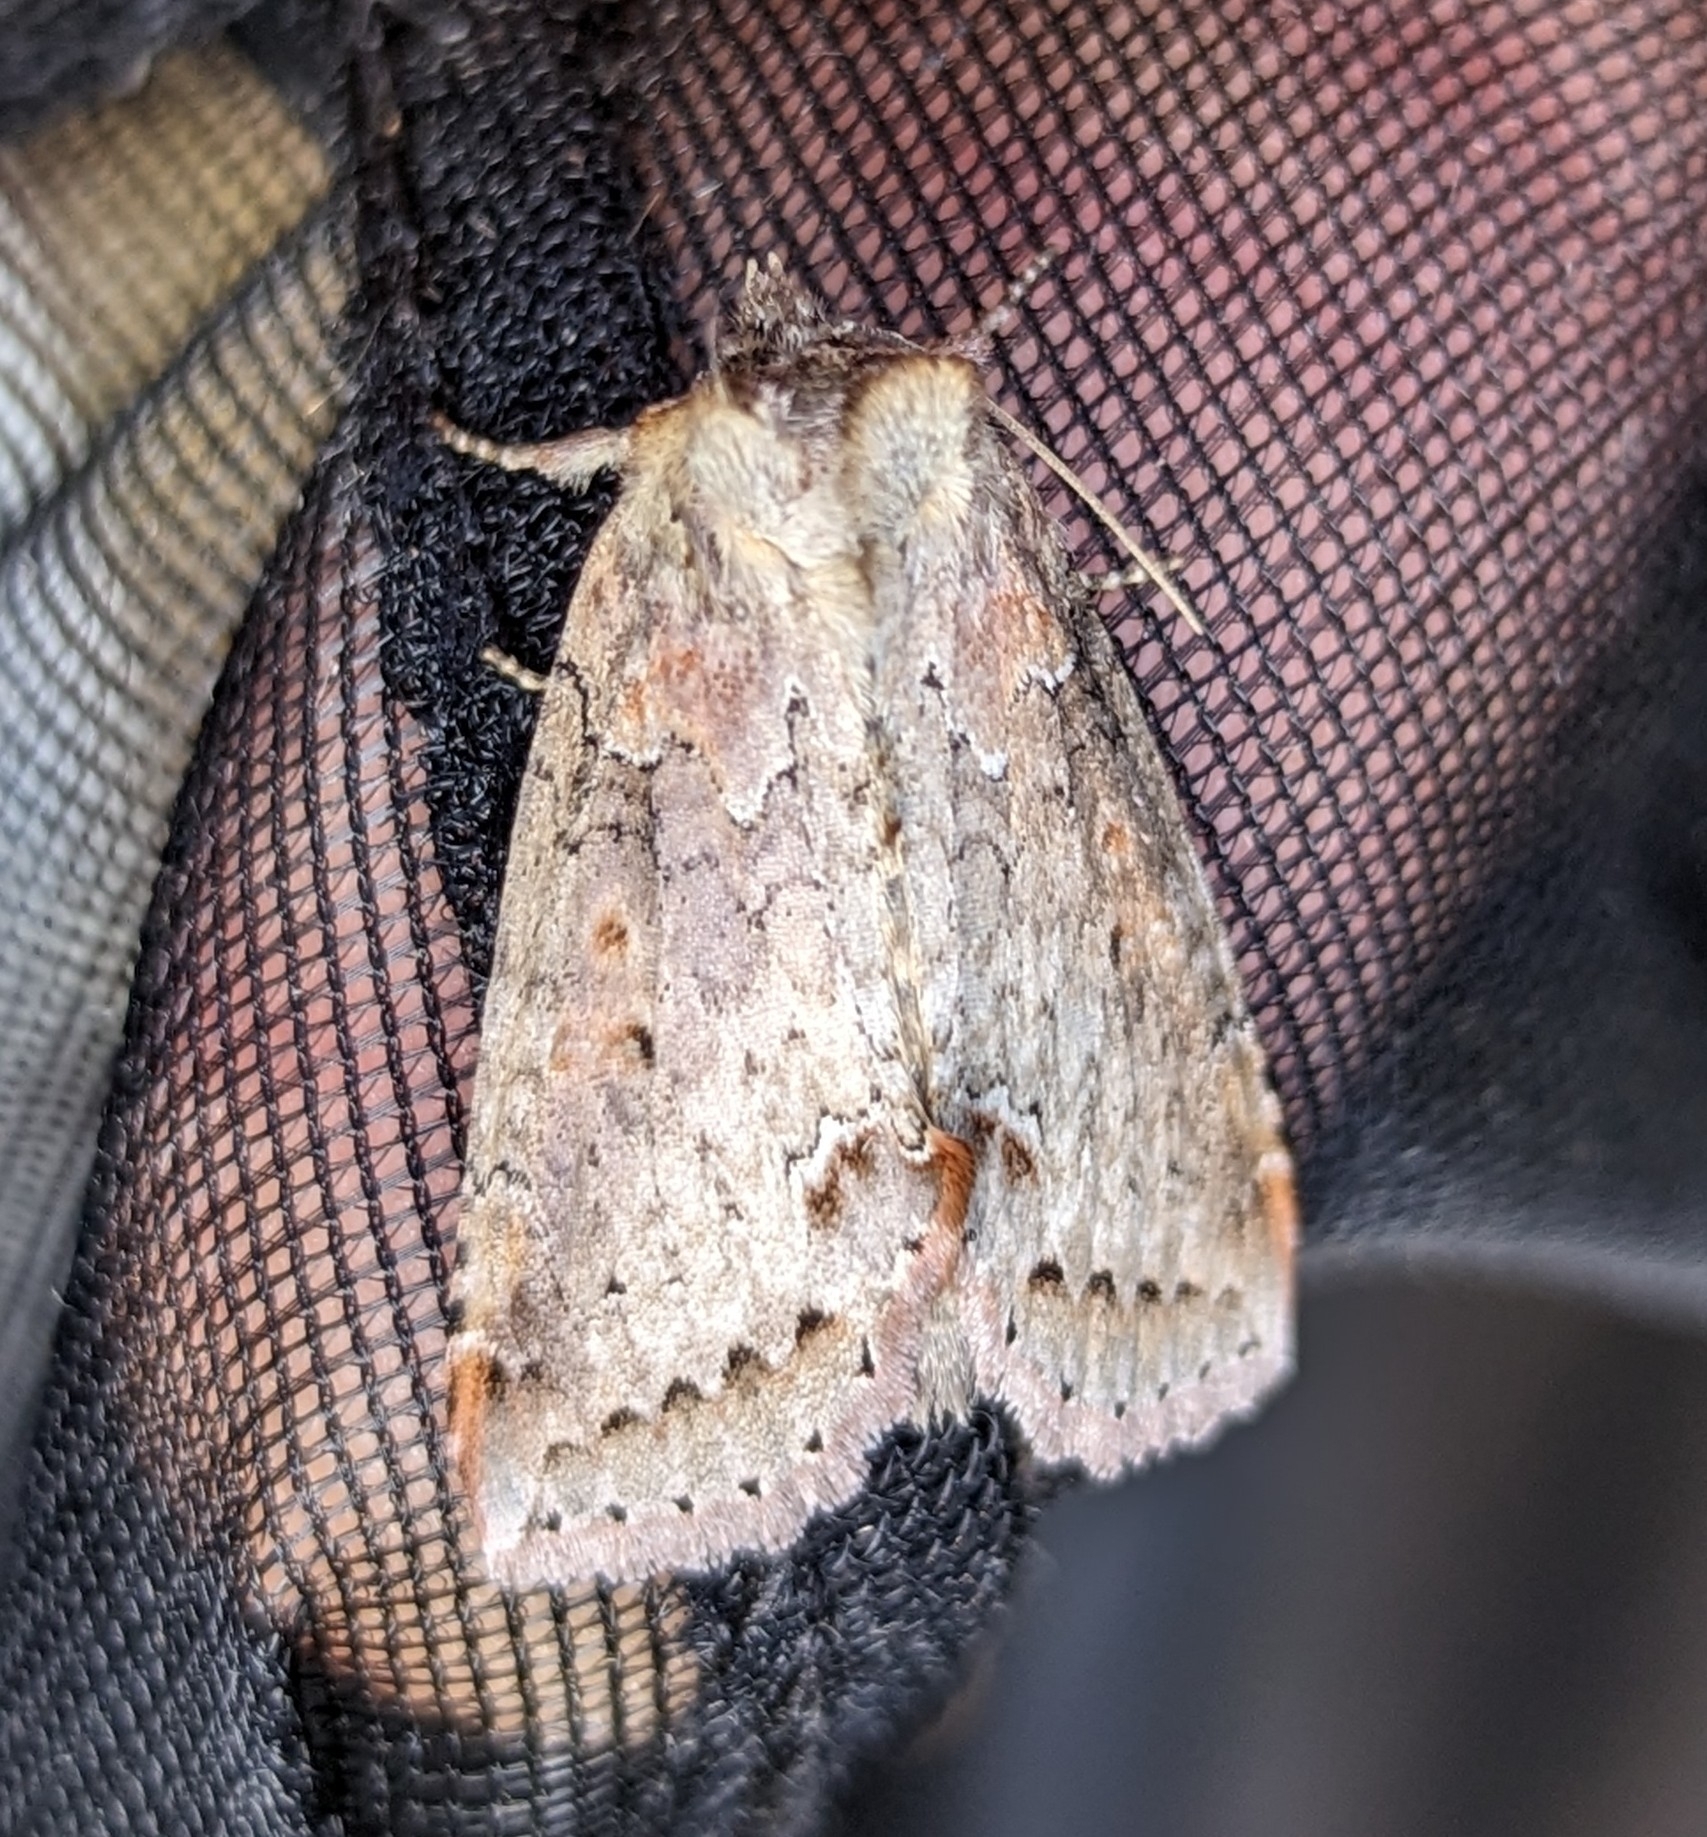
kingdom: Animalia
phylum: Arthropoda
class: Insecta
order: Lepidoptera
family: Drepanidae
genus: Pseudothyatira
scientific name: Pseudothyatira cymatophoroides
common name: Tufted thyatirid moth
